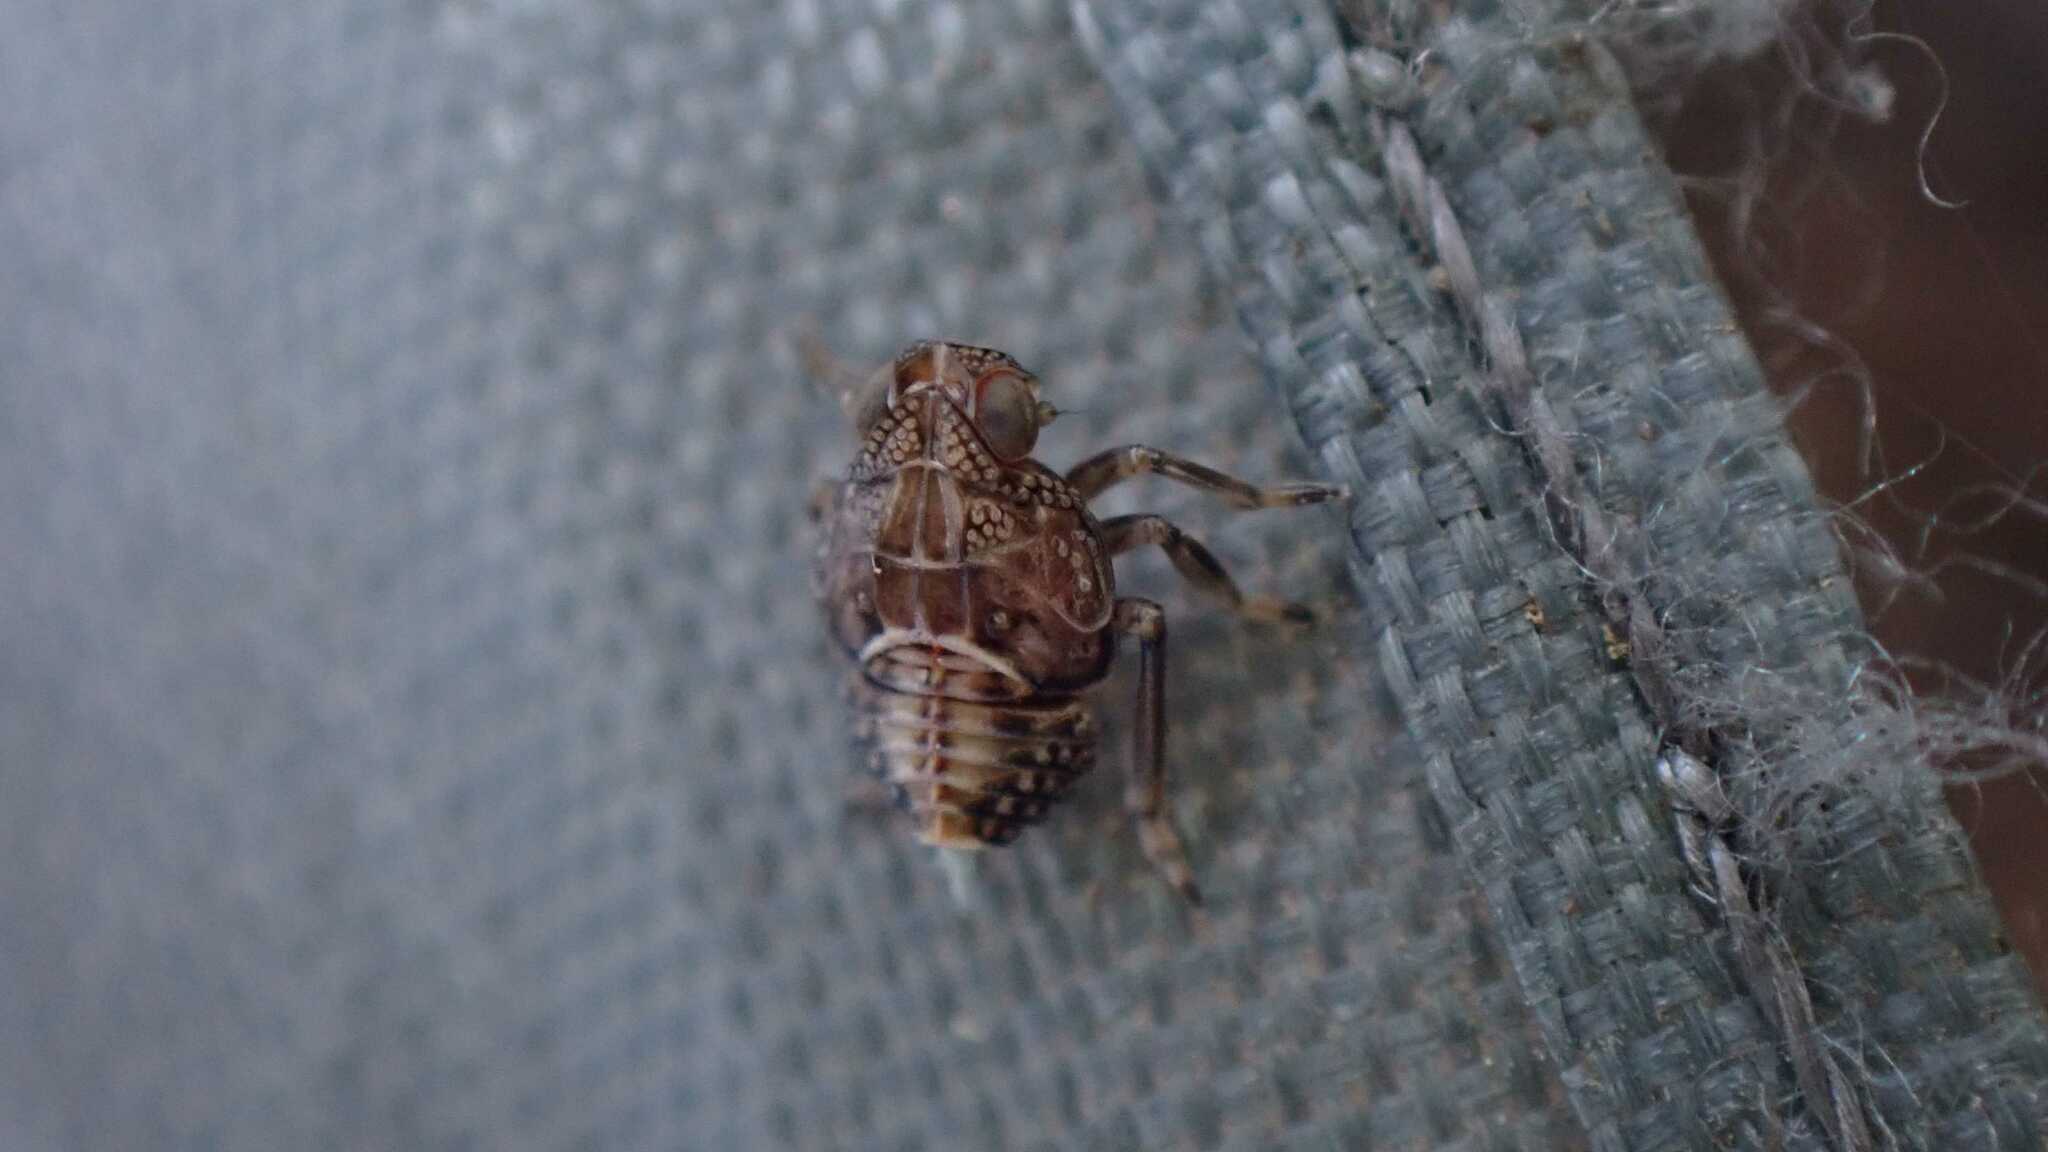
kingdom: Animalia
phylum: Arthropoda
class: Insecta
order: Hemiptera
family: Issidae
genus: Issus
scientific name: Issus
